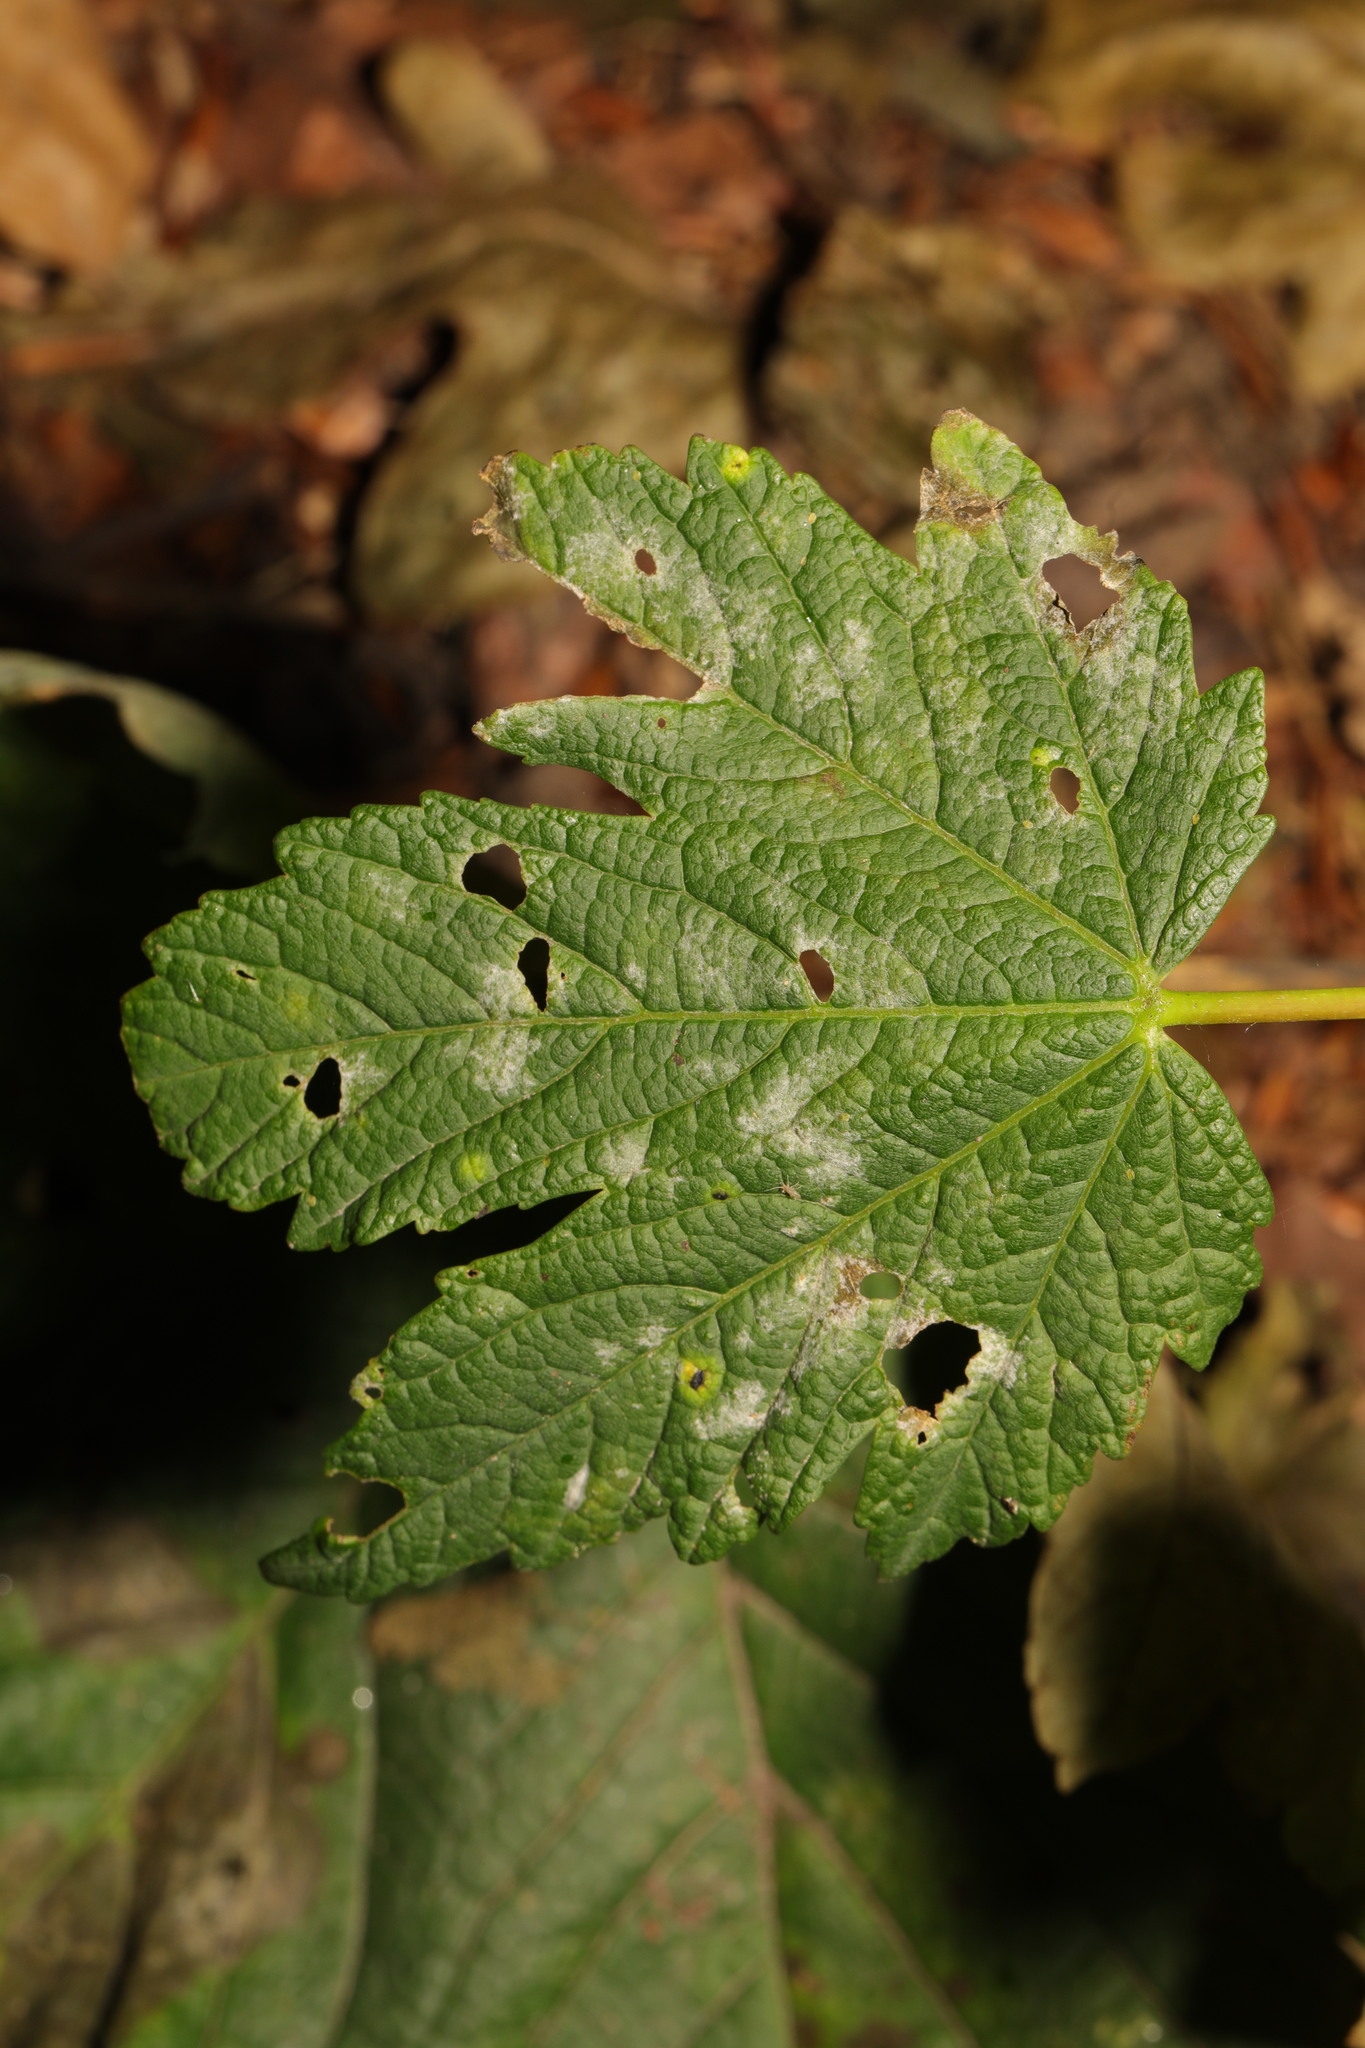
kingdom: Fungi
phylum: Ascomycota
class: Leotiomycetes
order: Helotiales
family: Erysiphaceae
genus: Sawadaea
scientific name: Sawadaea bicornis
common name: Maple mildew
